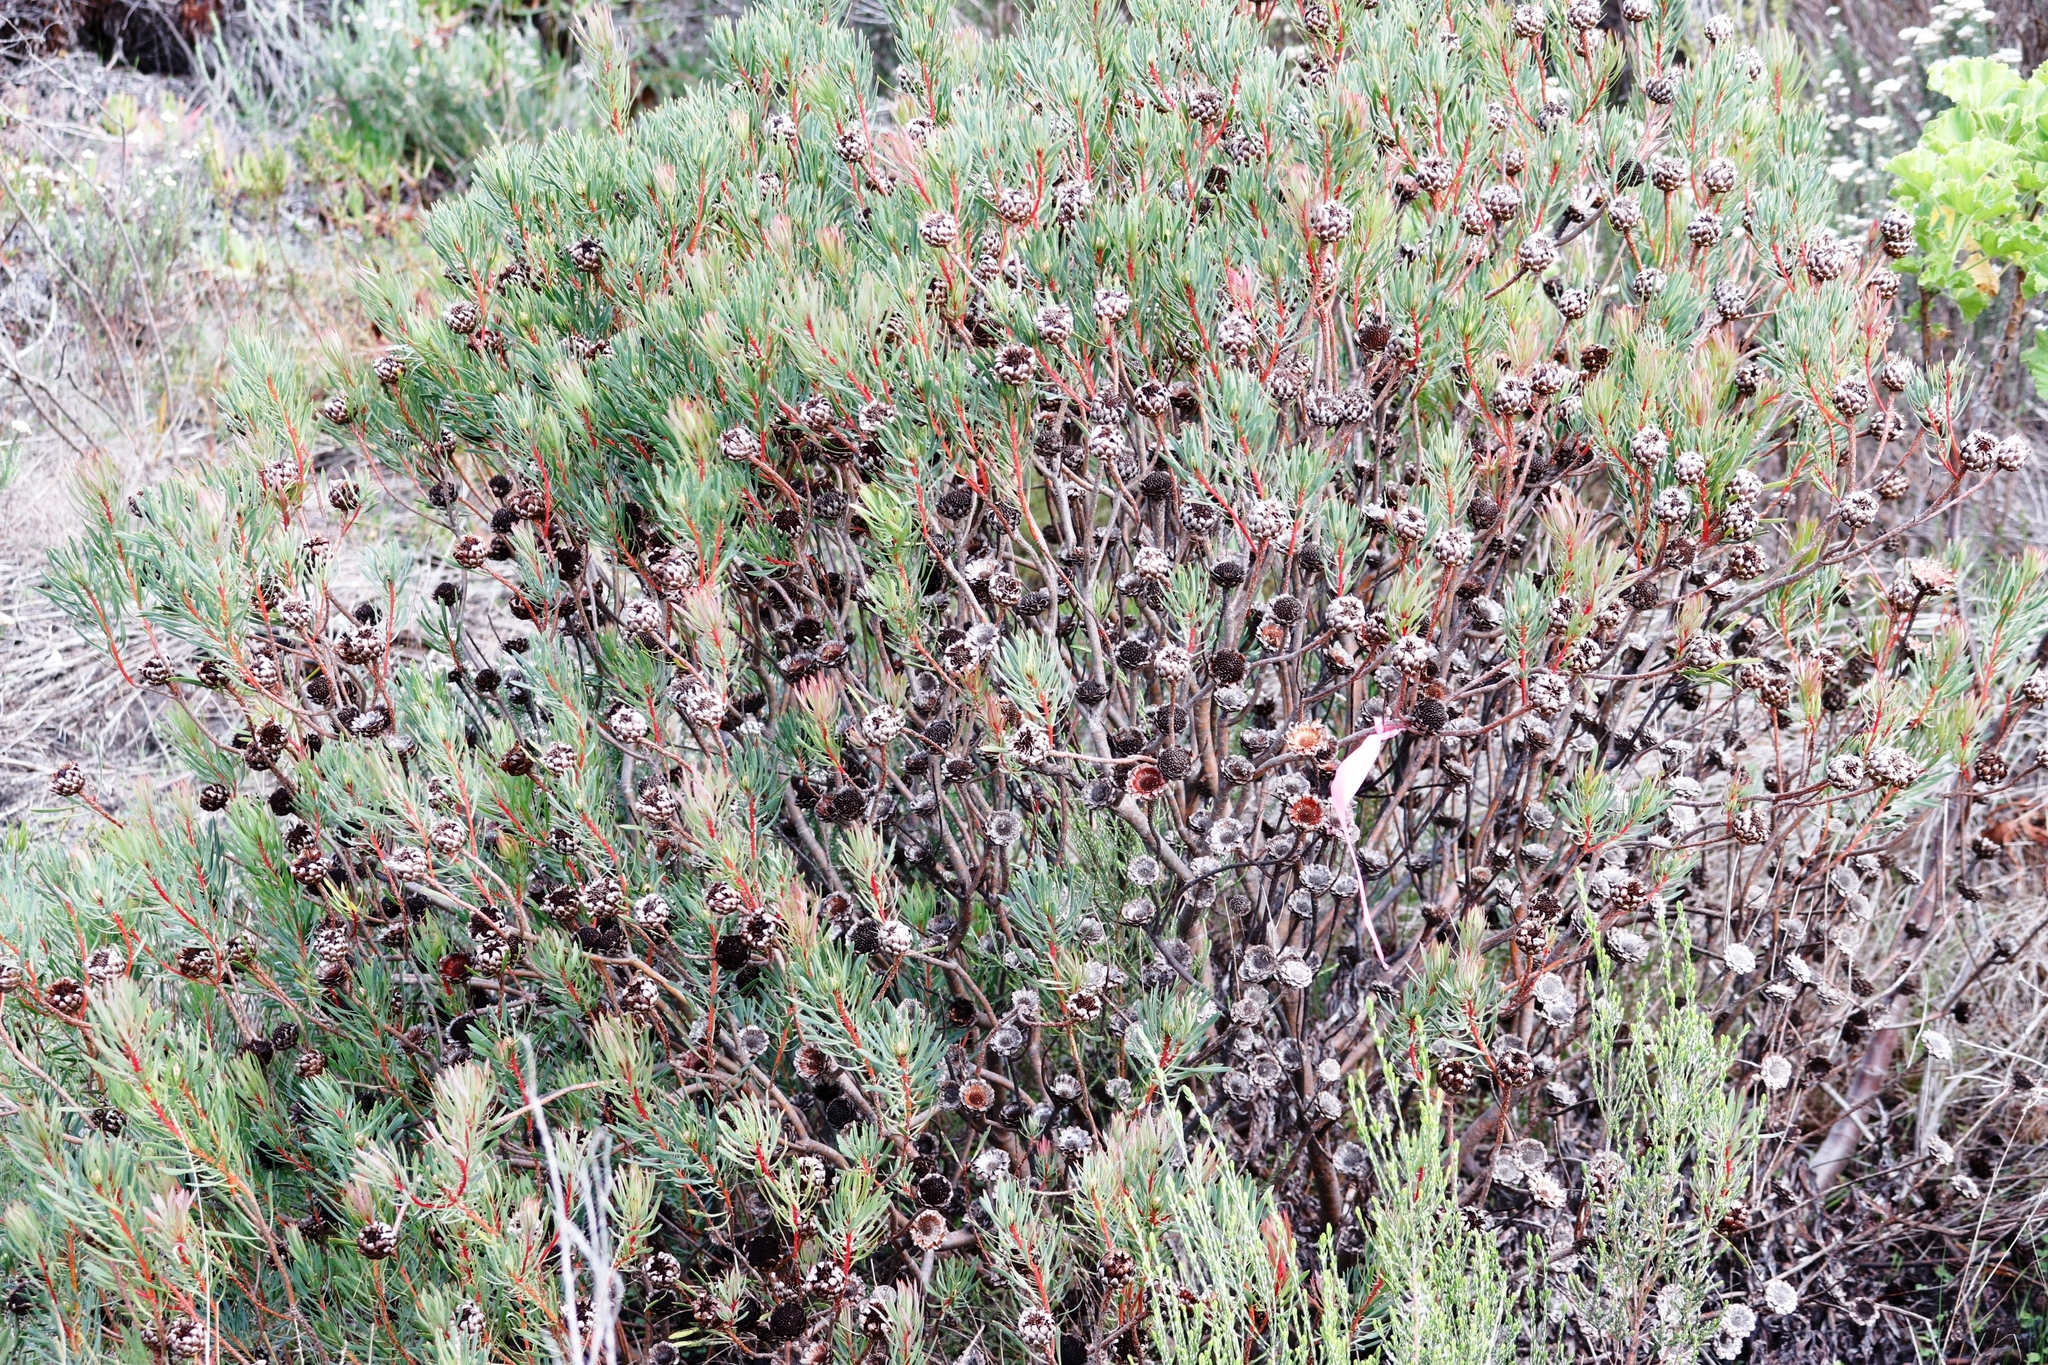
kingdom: Plantae
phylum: Tracheophyta
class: Magnoliopsida
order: Proteales
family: Proteaceae
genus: Protea
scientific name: Protea scolymocephala
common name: Thistle sugarbush
